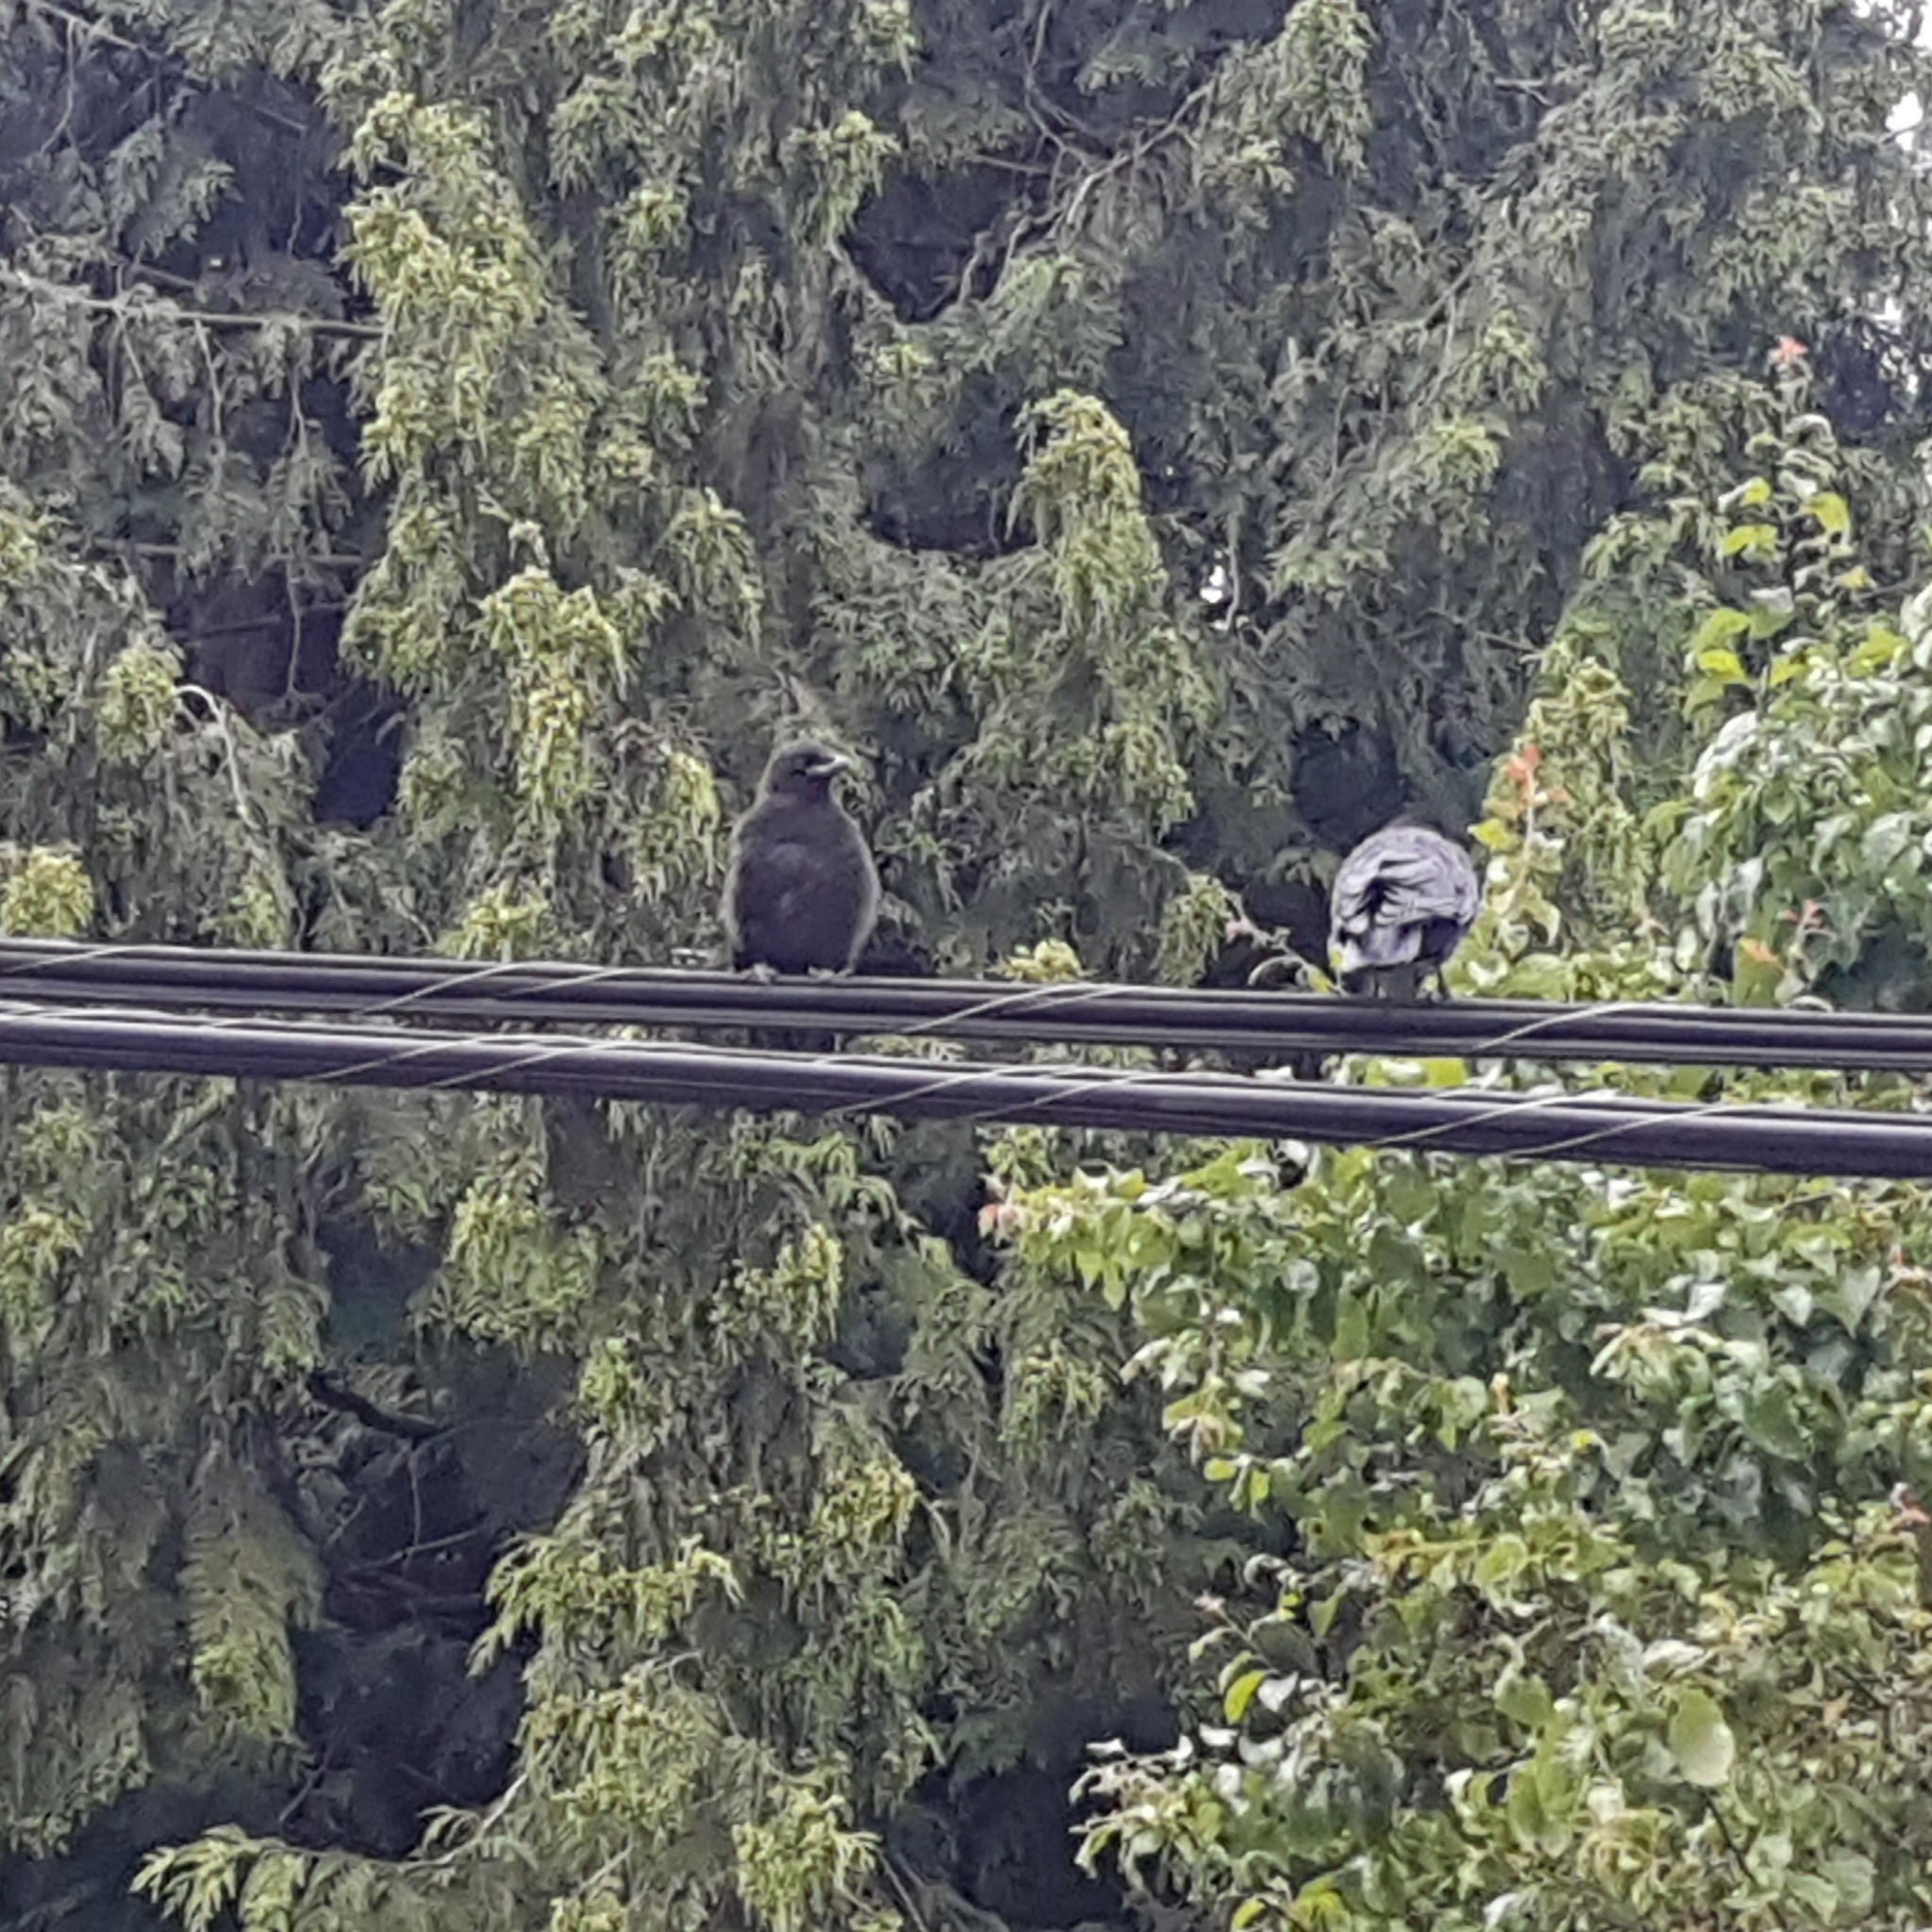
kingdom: Animalia
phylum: Chordata
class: Aves
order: Passeriformes
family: Corvidae
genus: Corvus
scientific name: Corvus brachyrhynchos
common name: American crow
